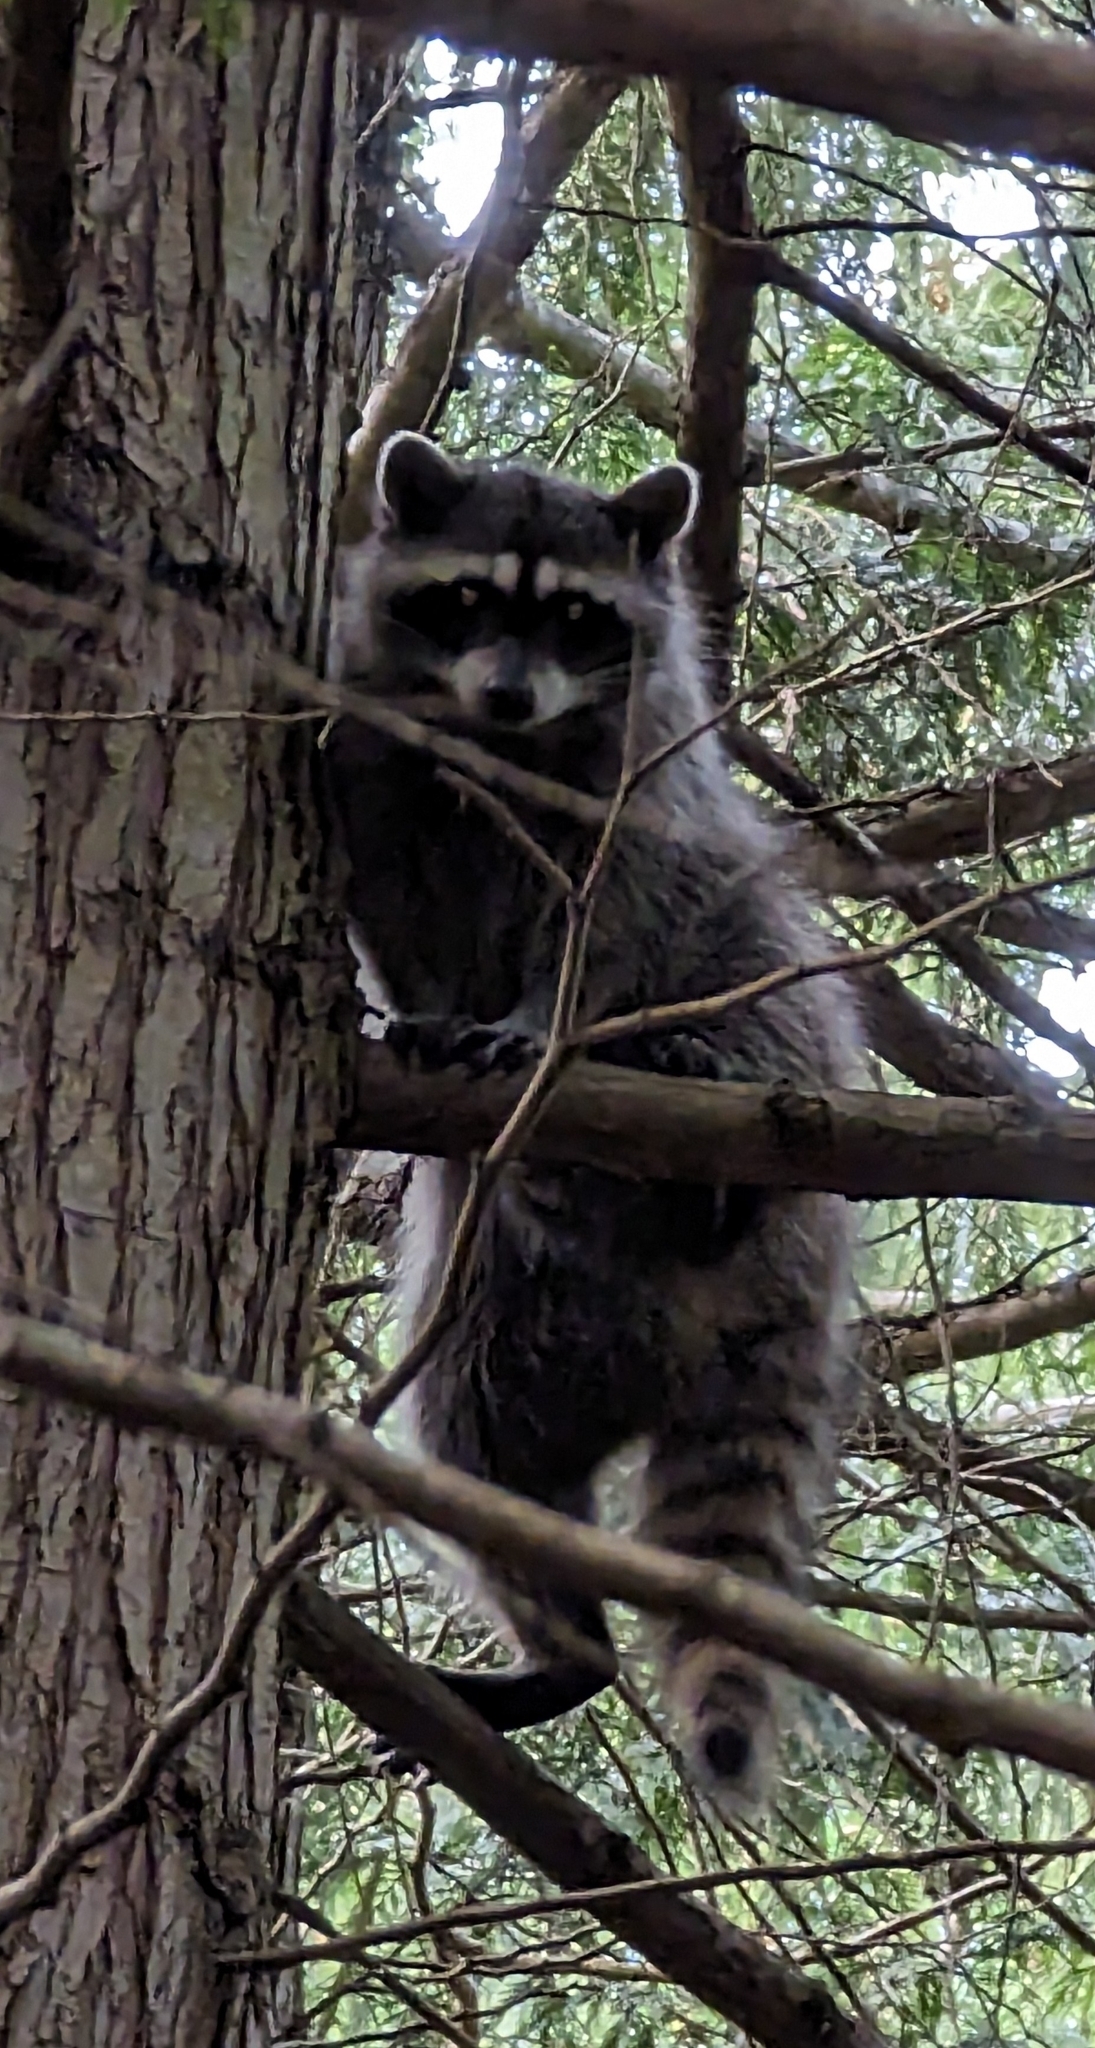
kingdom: Animalia
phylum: Chordata
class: Mammalia
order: Carnivora
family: Procyonidae
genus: Procyon
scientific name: Procyon lotor
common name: Raccoon
